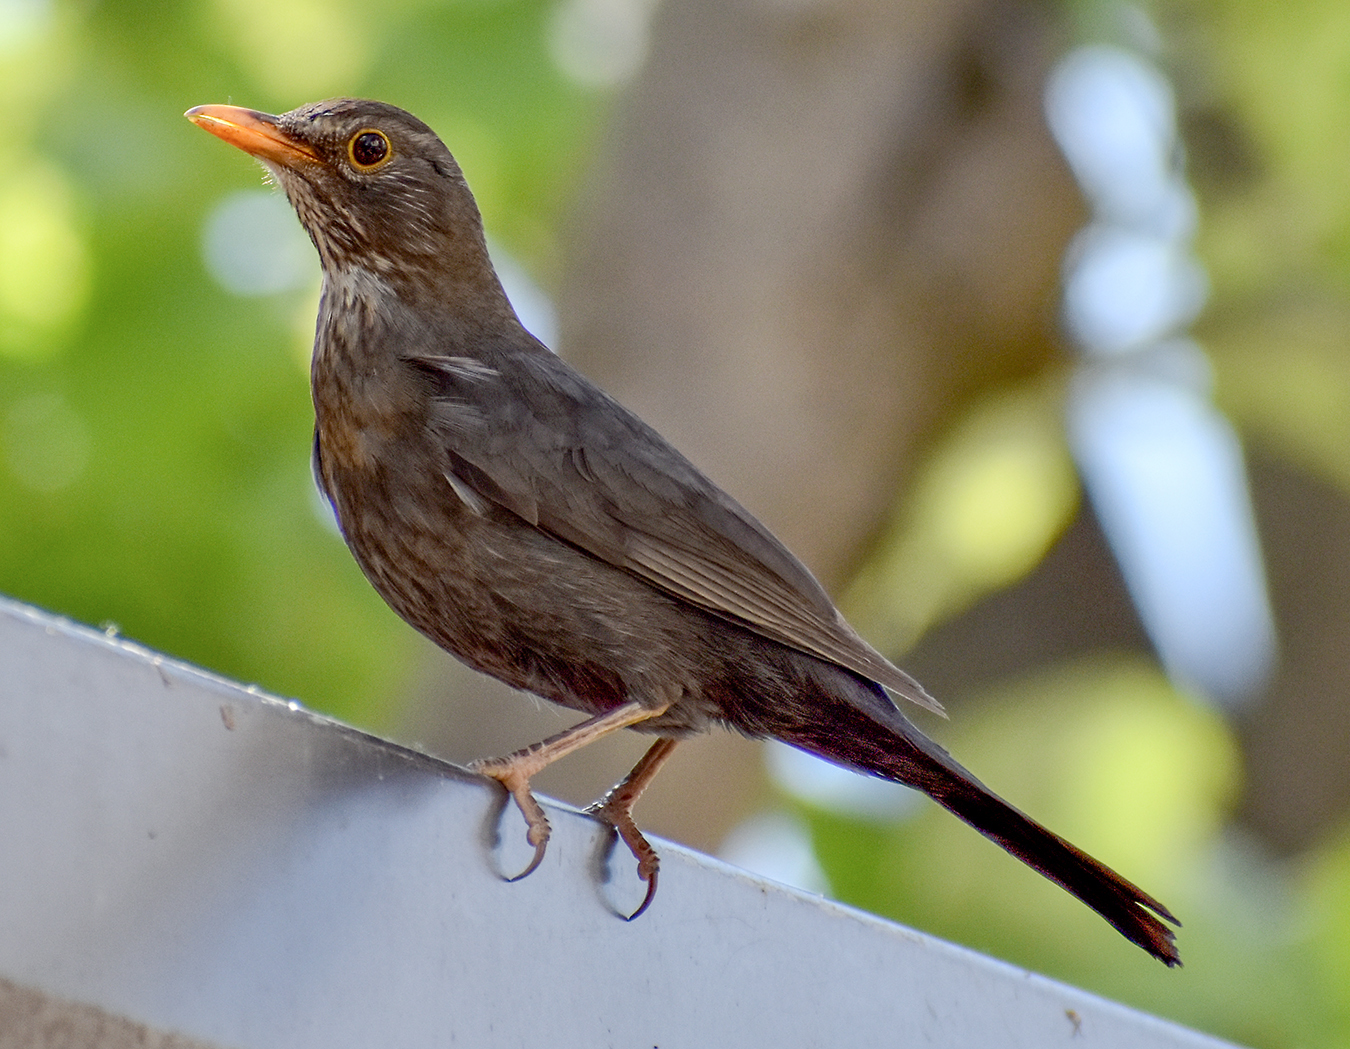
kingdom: Animalia
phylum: Chordata
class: Aves
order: Passeriformes
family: Turdidae
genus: Turdus
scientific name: Turdus merula
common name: Common blackbird
